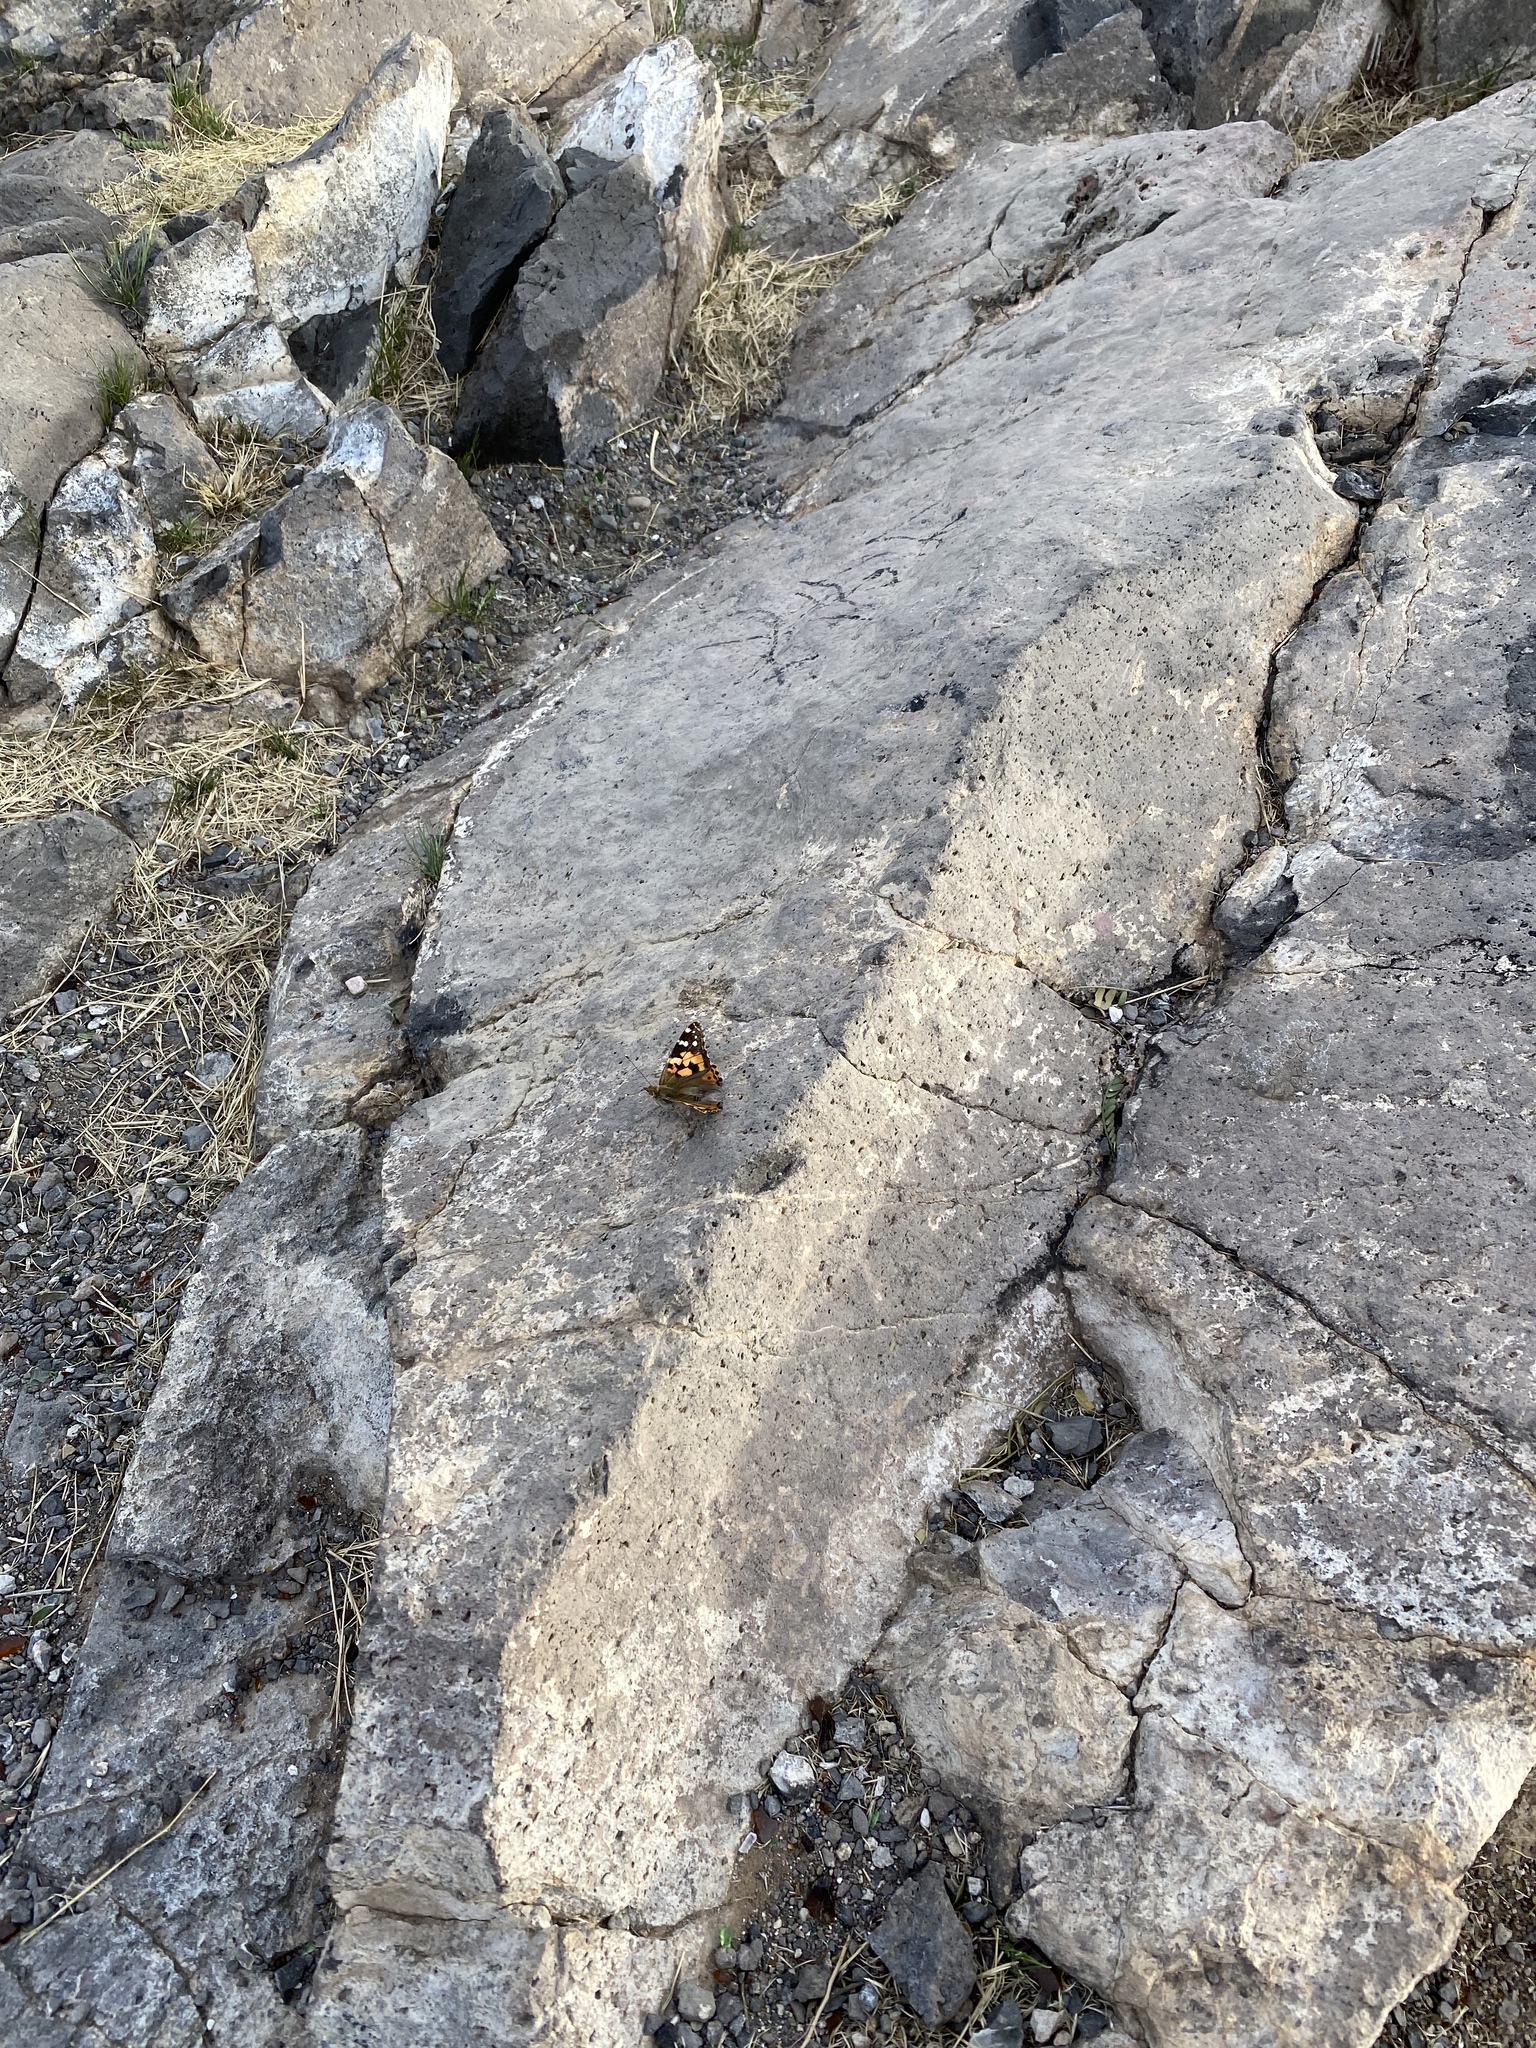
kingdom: Animalia
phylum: Arthropoda
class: Insecta
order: Lepidoptera
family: Nymphalidae
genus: Vanessa
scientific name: Vanessa cardui
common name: Painted lady
